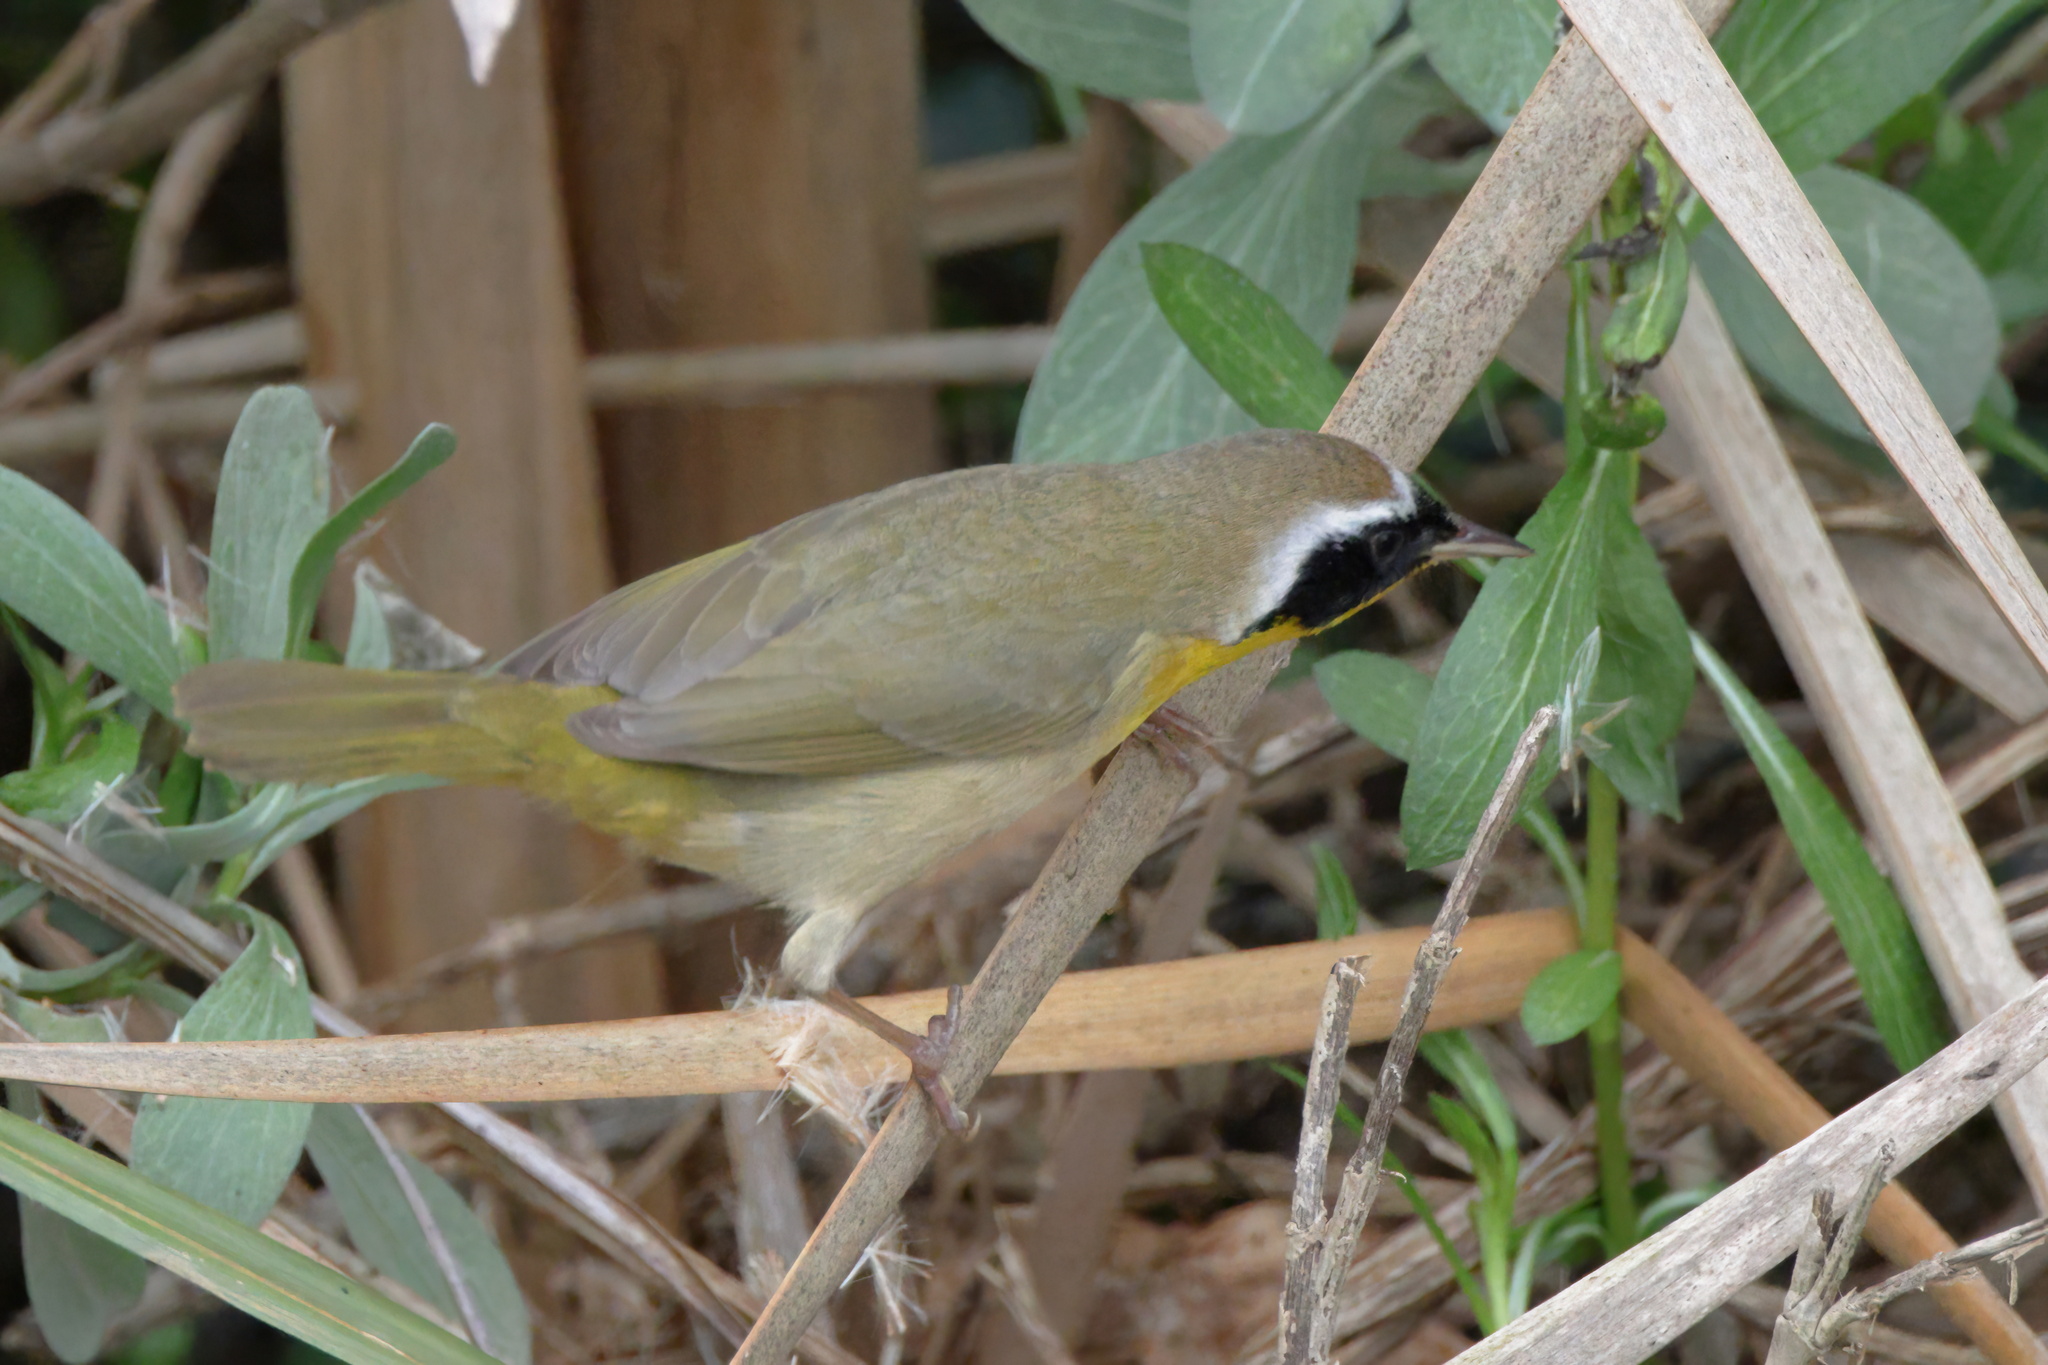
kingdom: Animalia
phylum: Chordata
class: Aves
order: Passeriformes
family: Parulidae
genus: Geothlypis
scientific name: Geothlypis trichas
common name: Common yellowthroat
